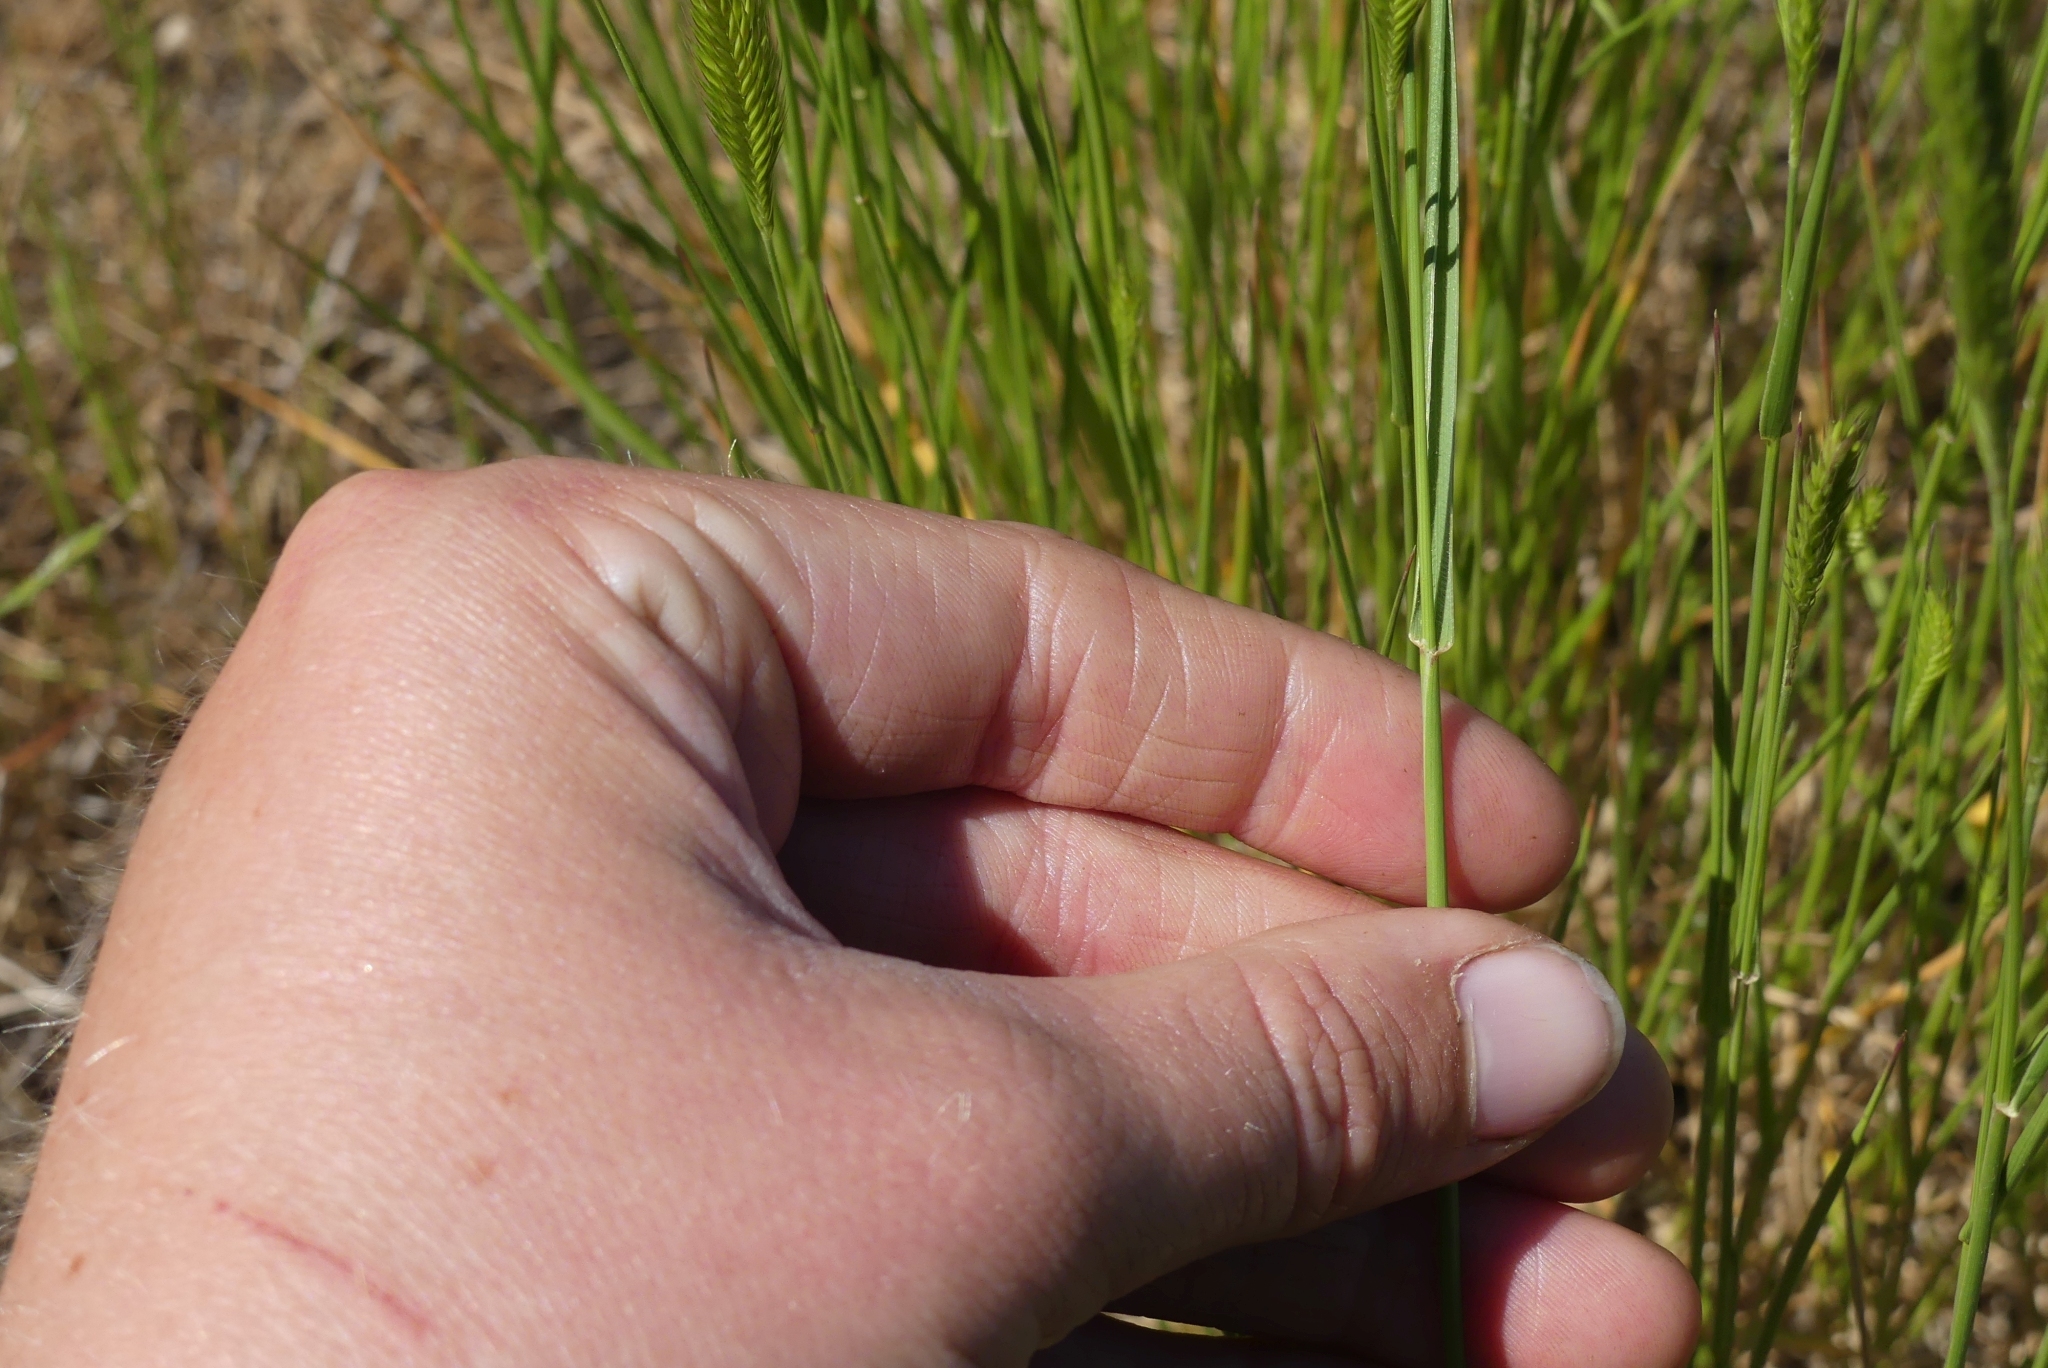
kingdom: Plantae
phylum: Tracheophyta
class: Liliopsida
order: Poales
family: Poaceae
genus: Agropyron
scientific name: Agropyron cristatum
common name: Crested wheatgrass
